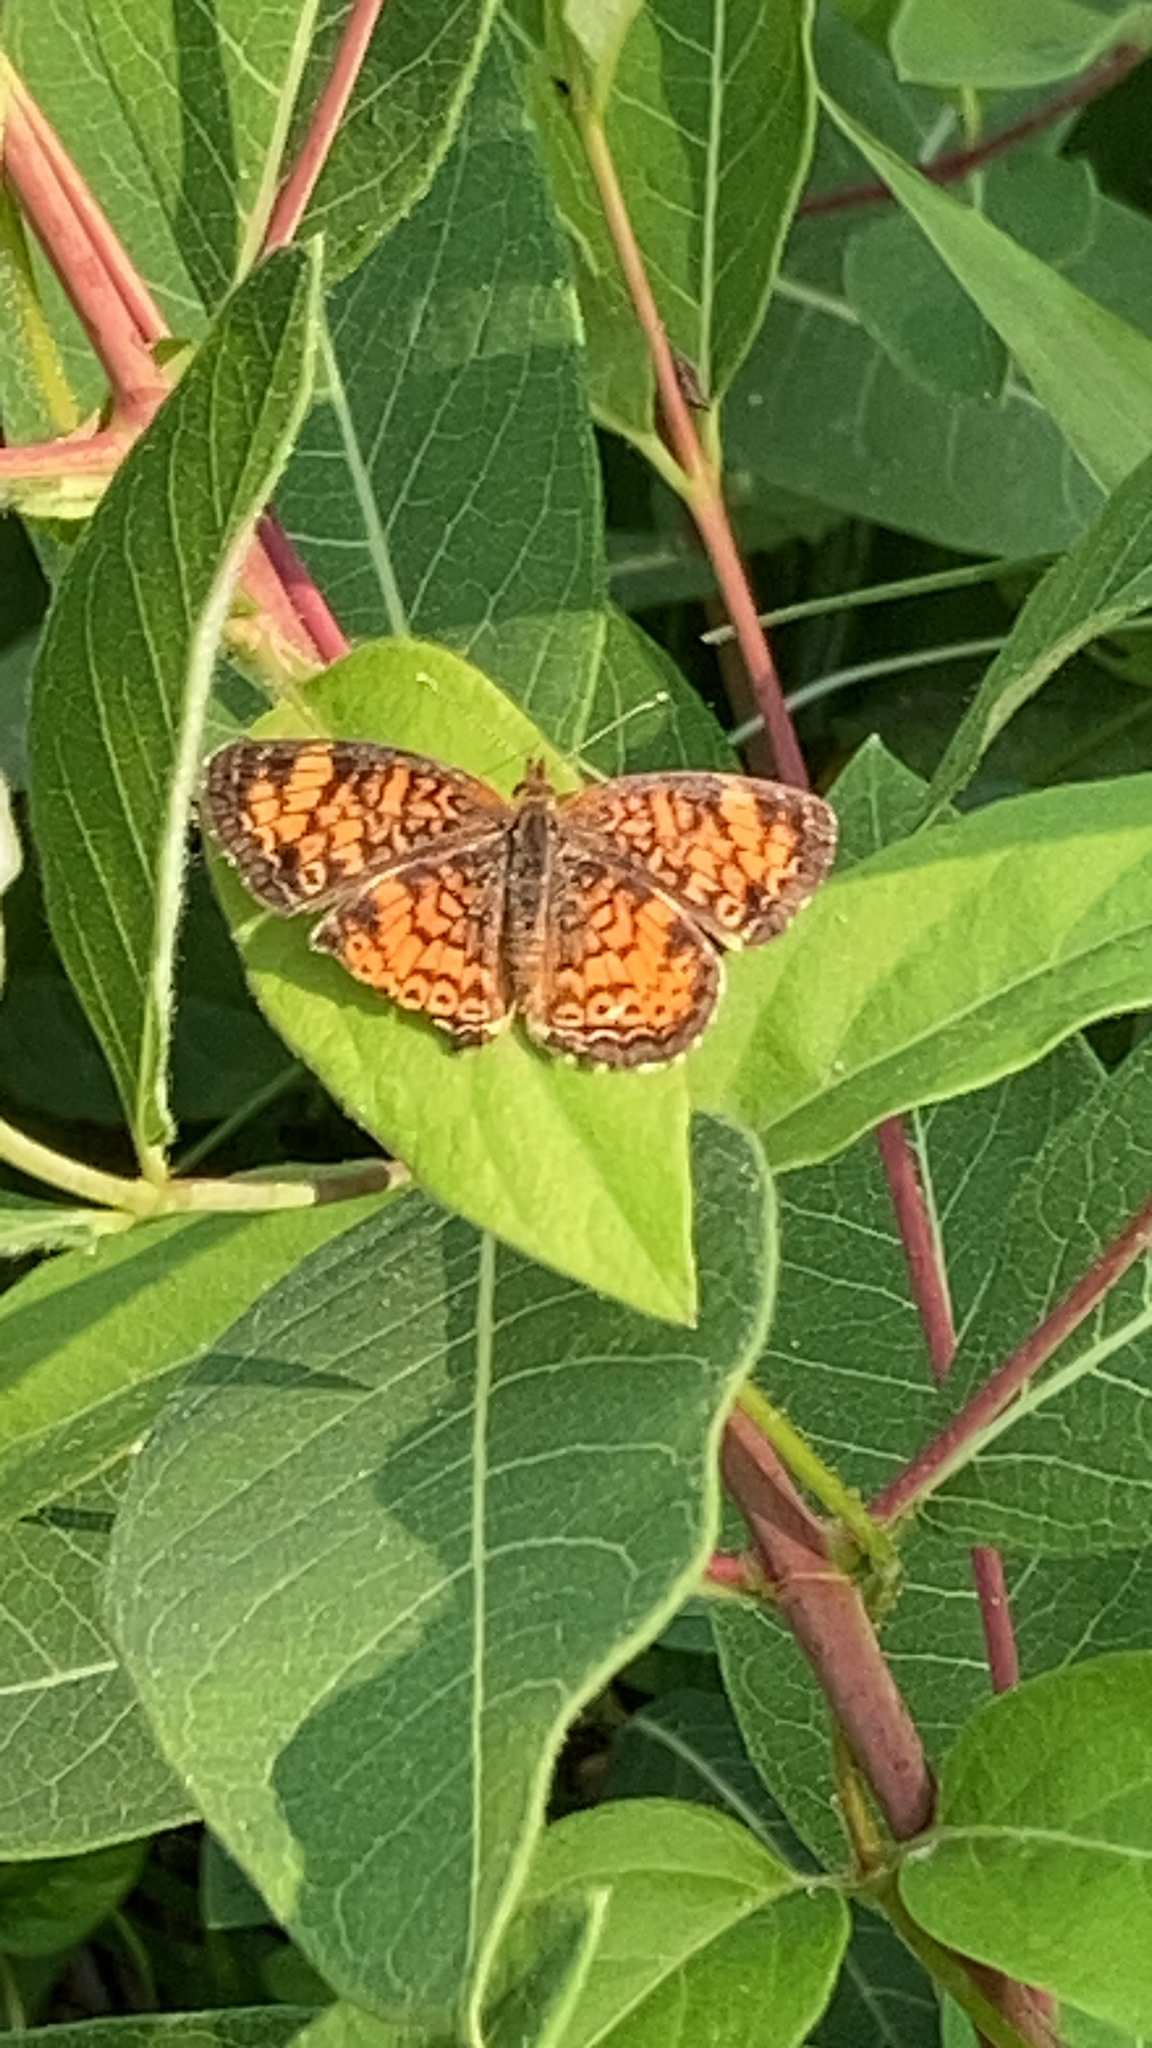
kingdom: Animalia
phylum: Arthropoda
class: Insecta
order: Lepidoptera
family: Nymphalidae
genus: Phyciodes
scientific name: Phyciodes tharos
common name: Pearl crescent
